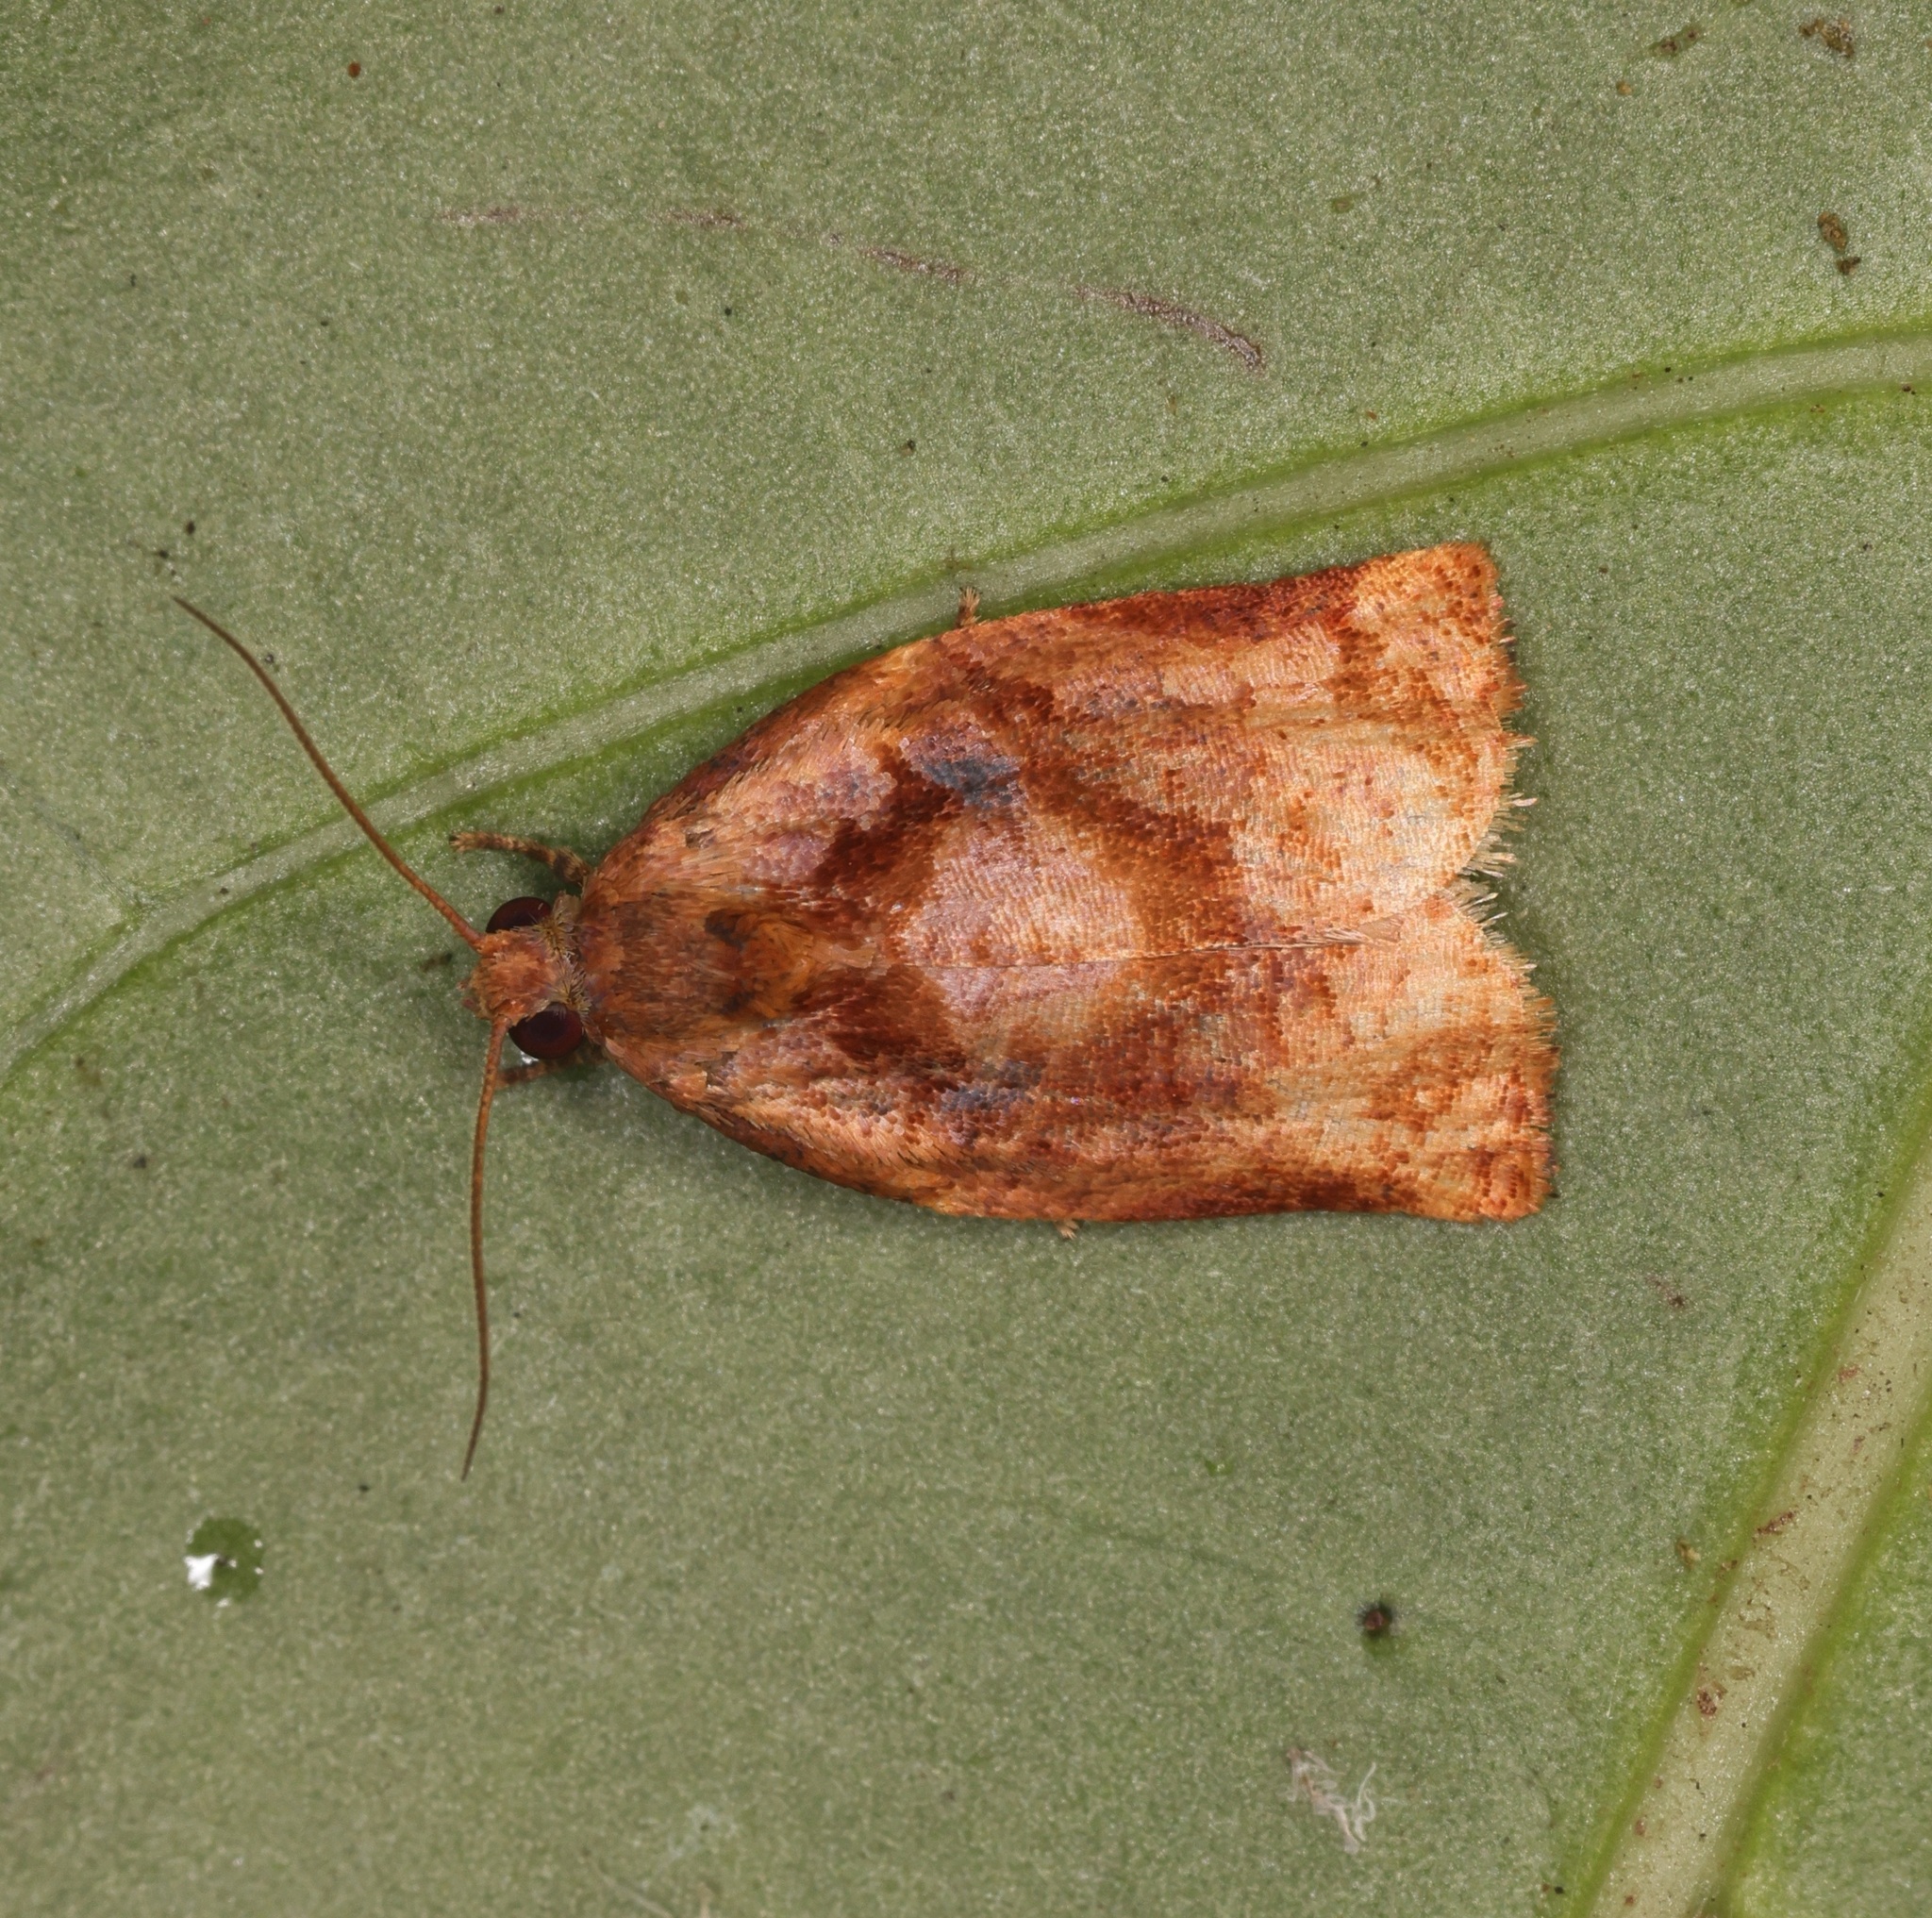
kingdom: Animalia
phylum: Arthropoda
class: Insecta
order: Lepidoptera
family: Tortricidae
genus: Archips
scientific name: Archips machlopis
